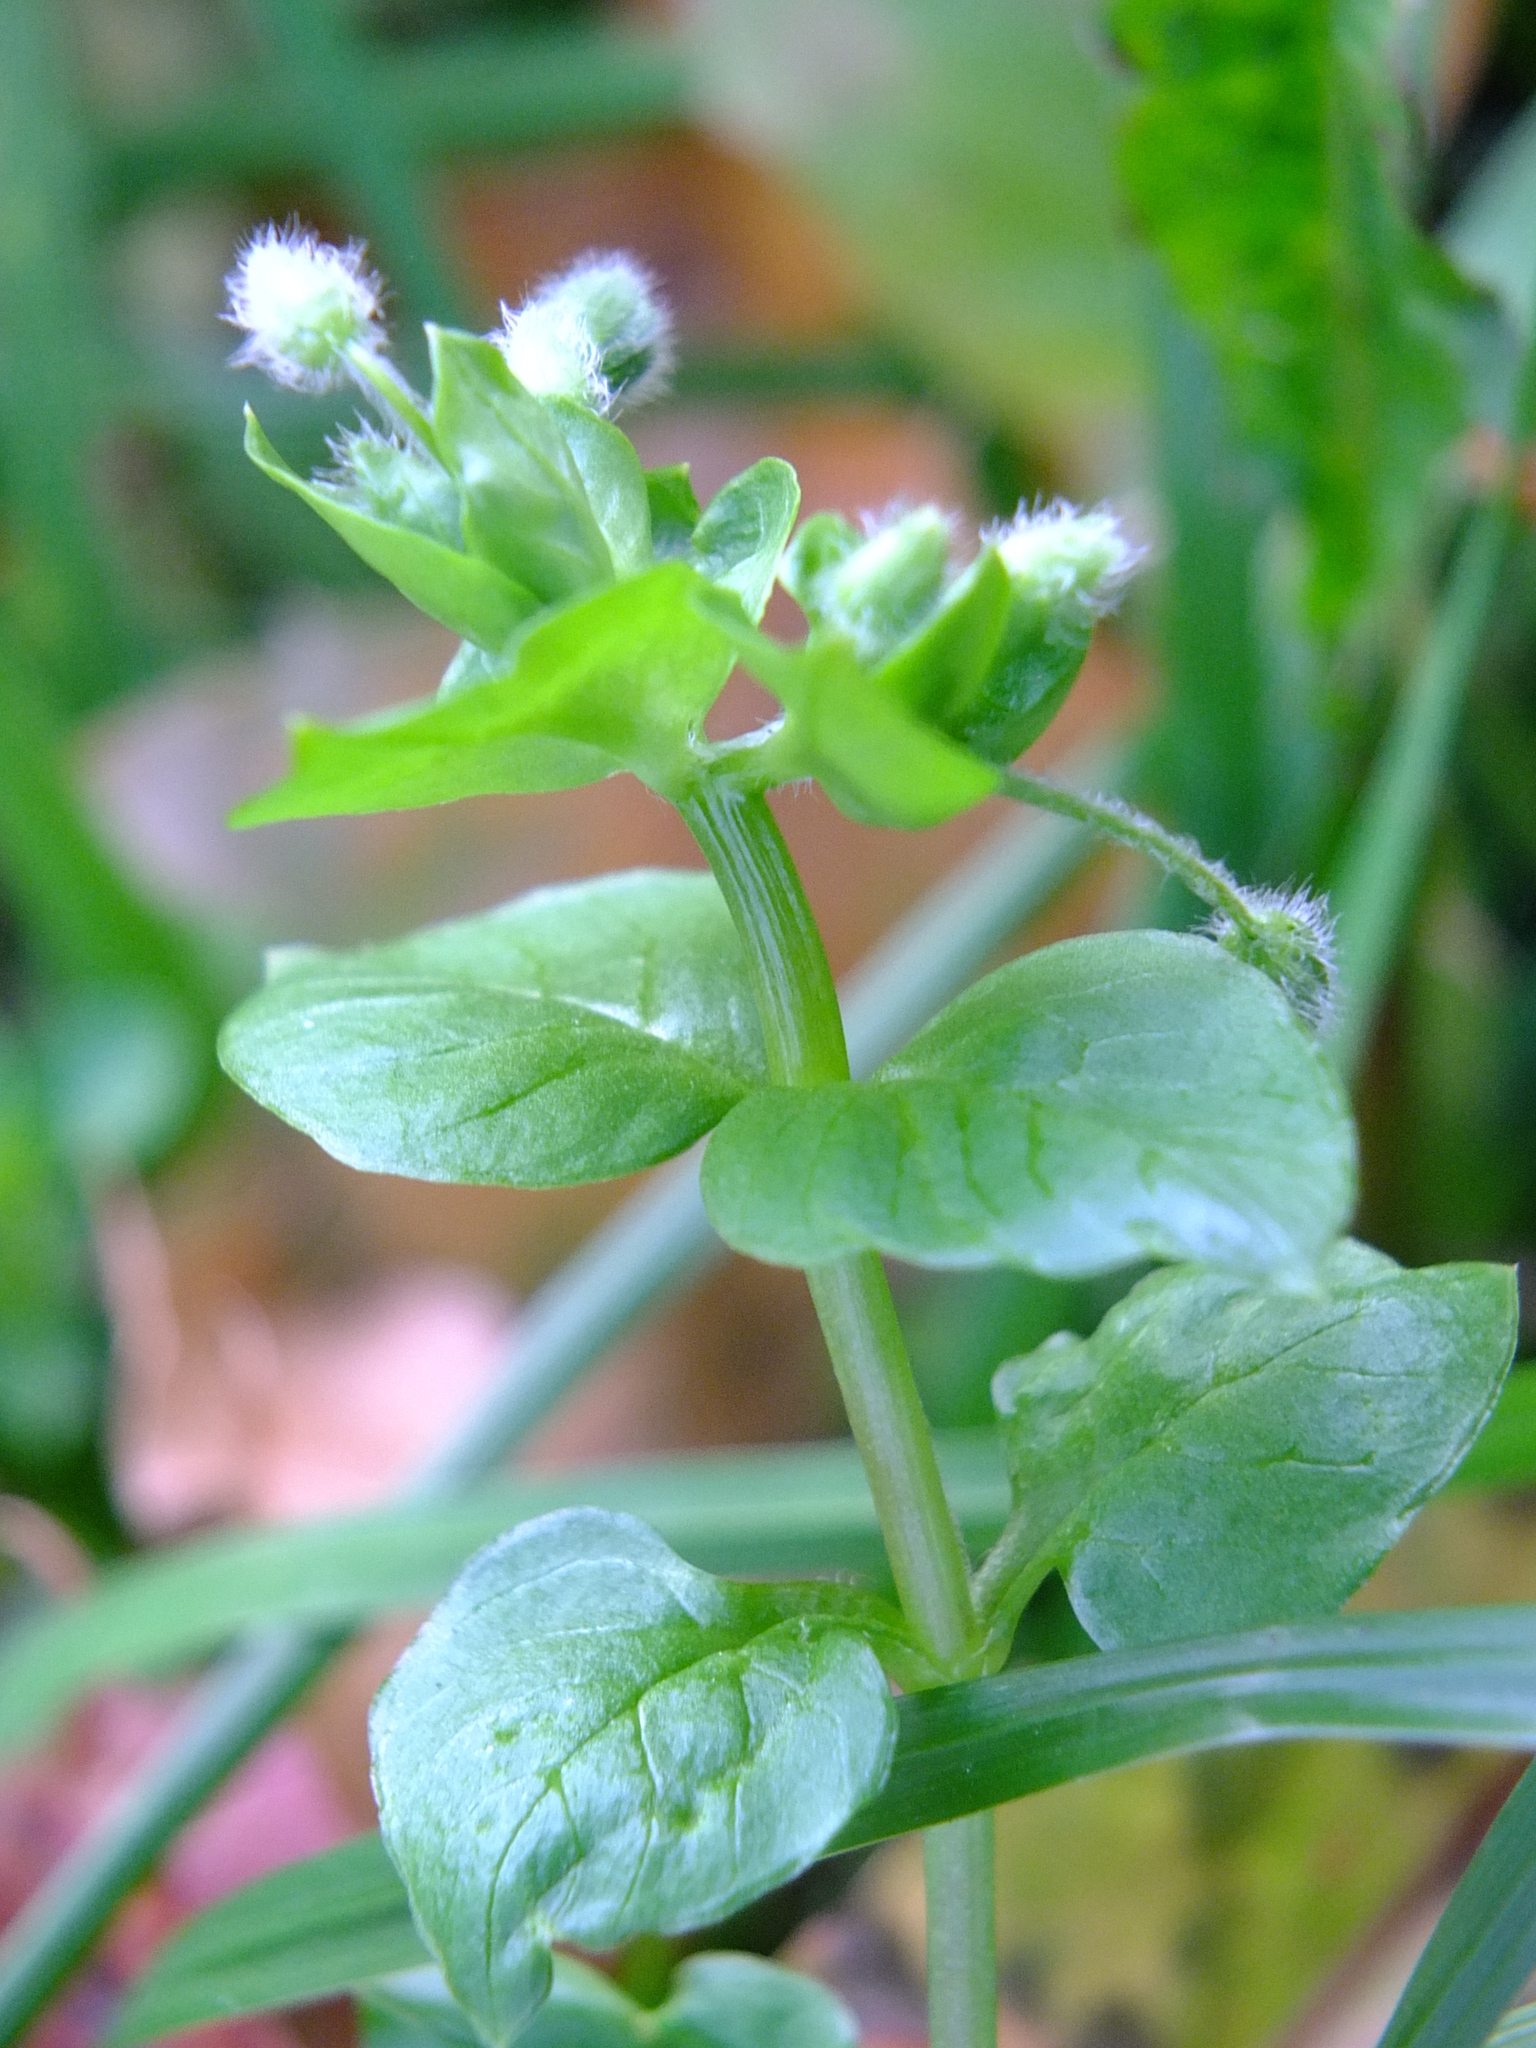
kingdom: Plantae
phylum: Tracheophyta
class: Magnoliopsida
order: Caryophyllales
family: Caryophyllaceae
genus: Stellaria
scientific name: Stellaria media
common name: Common chickweed
